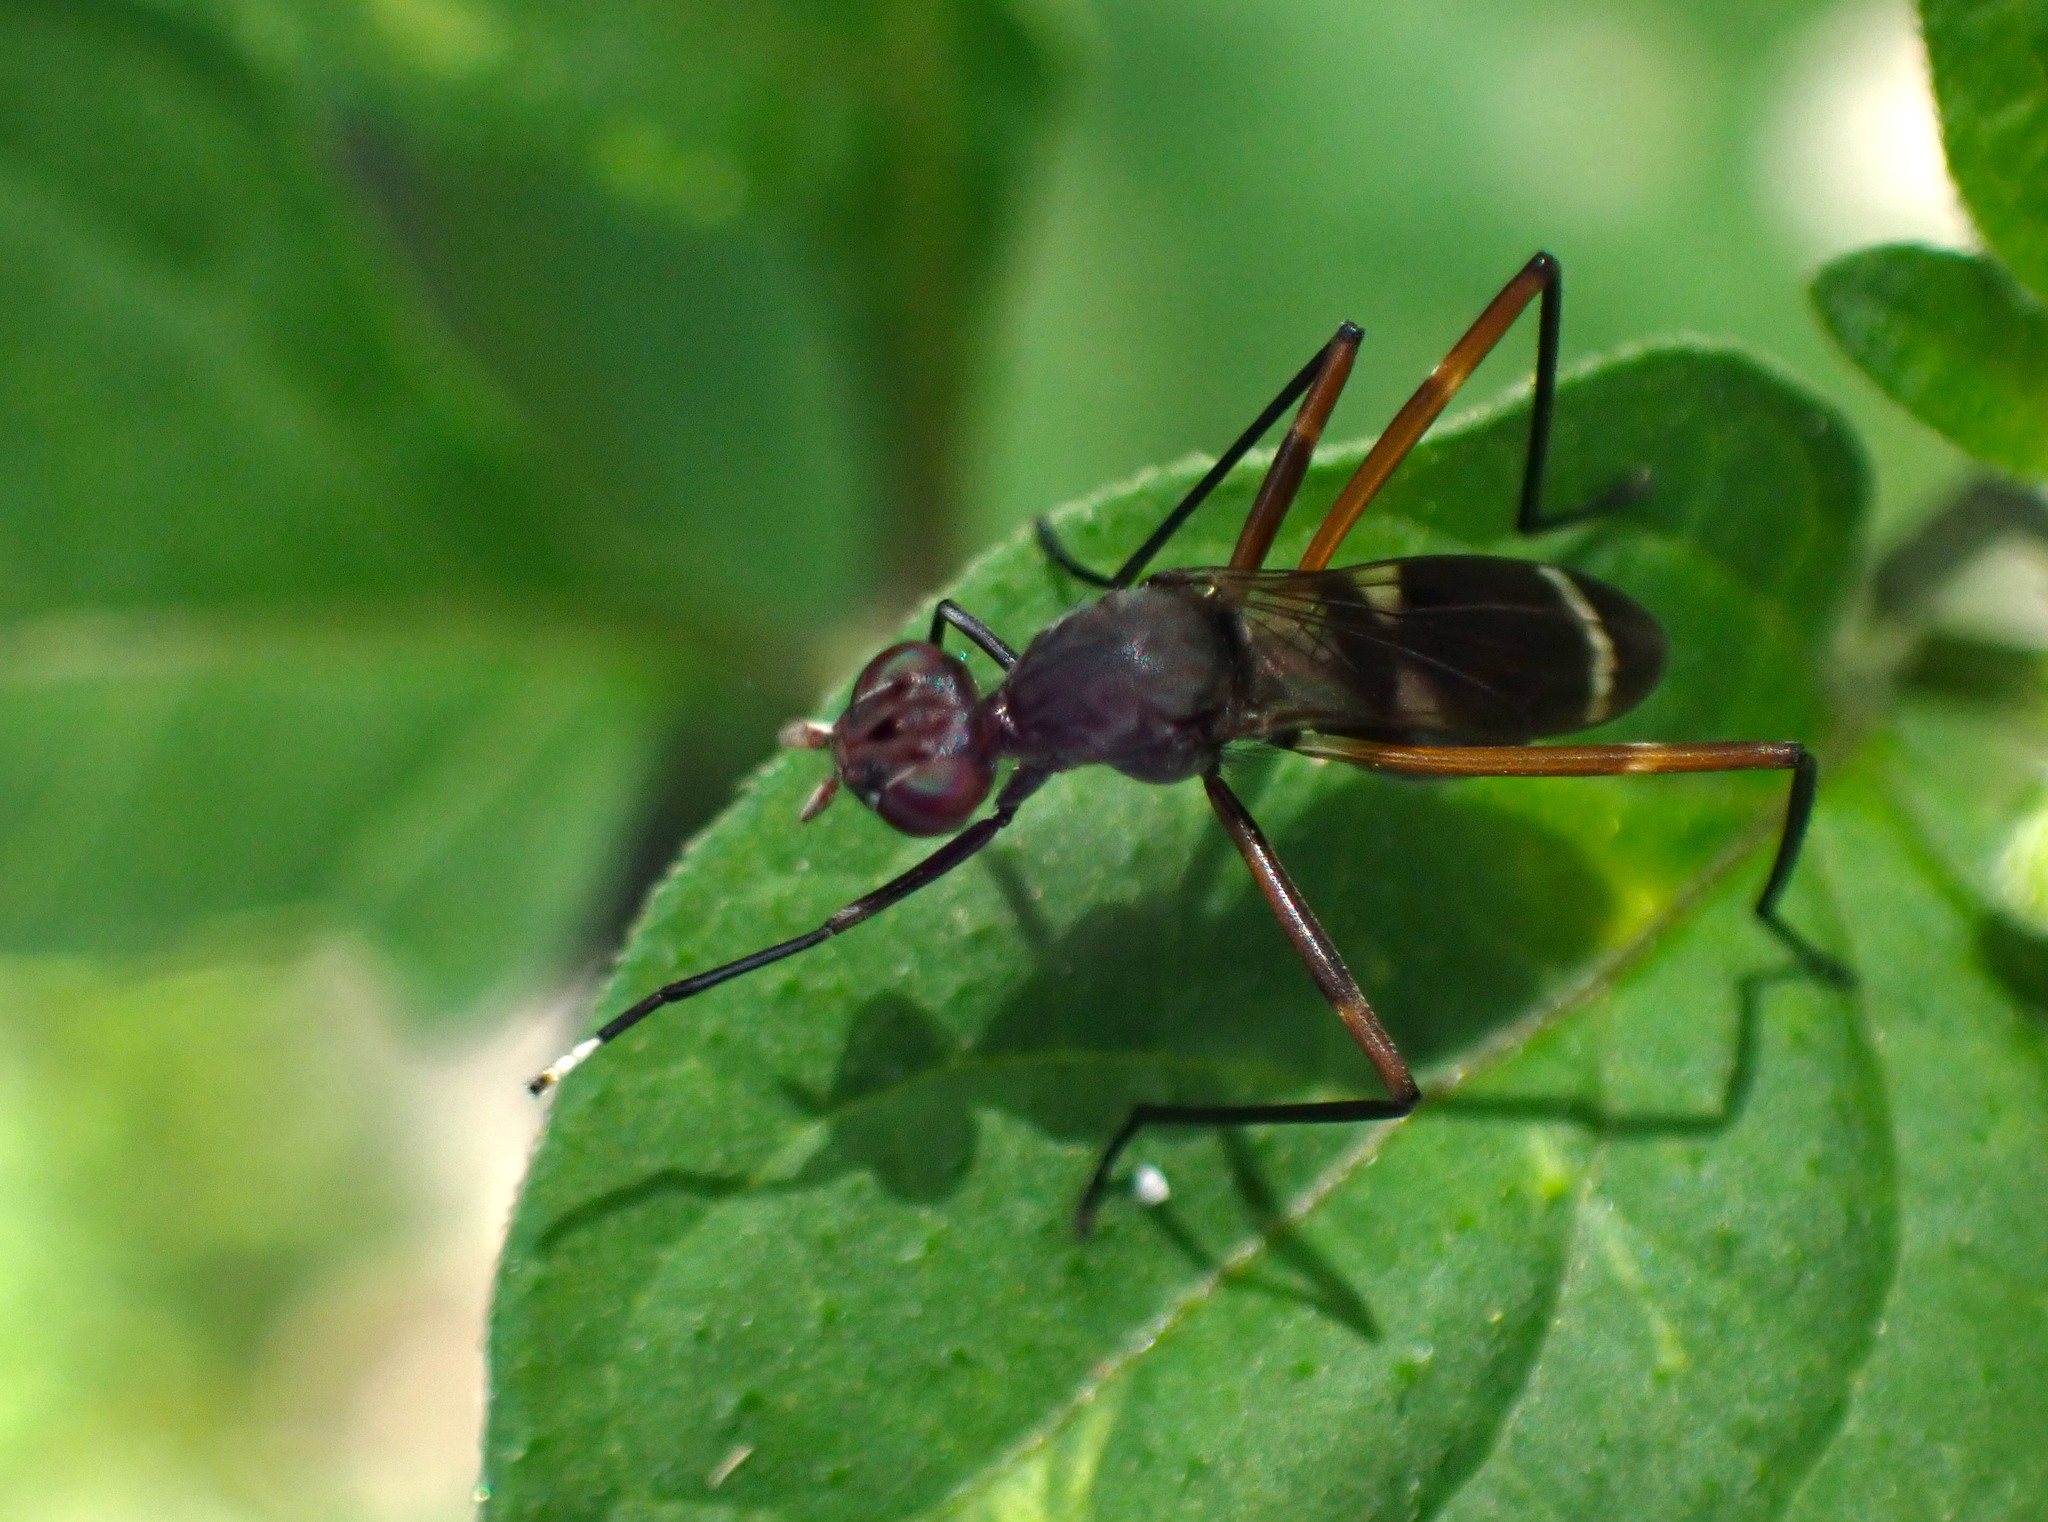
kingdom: Animalia
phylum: Arthropoda
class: Insecta
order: Diptera
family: Micropezidae
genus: Taeniaptera
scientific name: Taeniaptera lasciva
